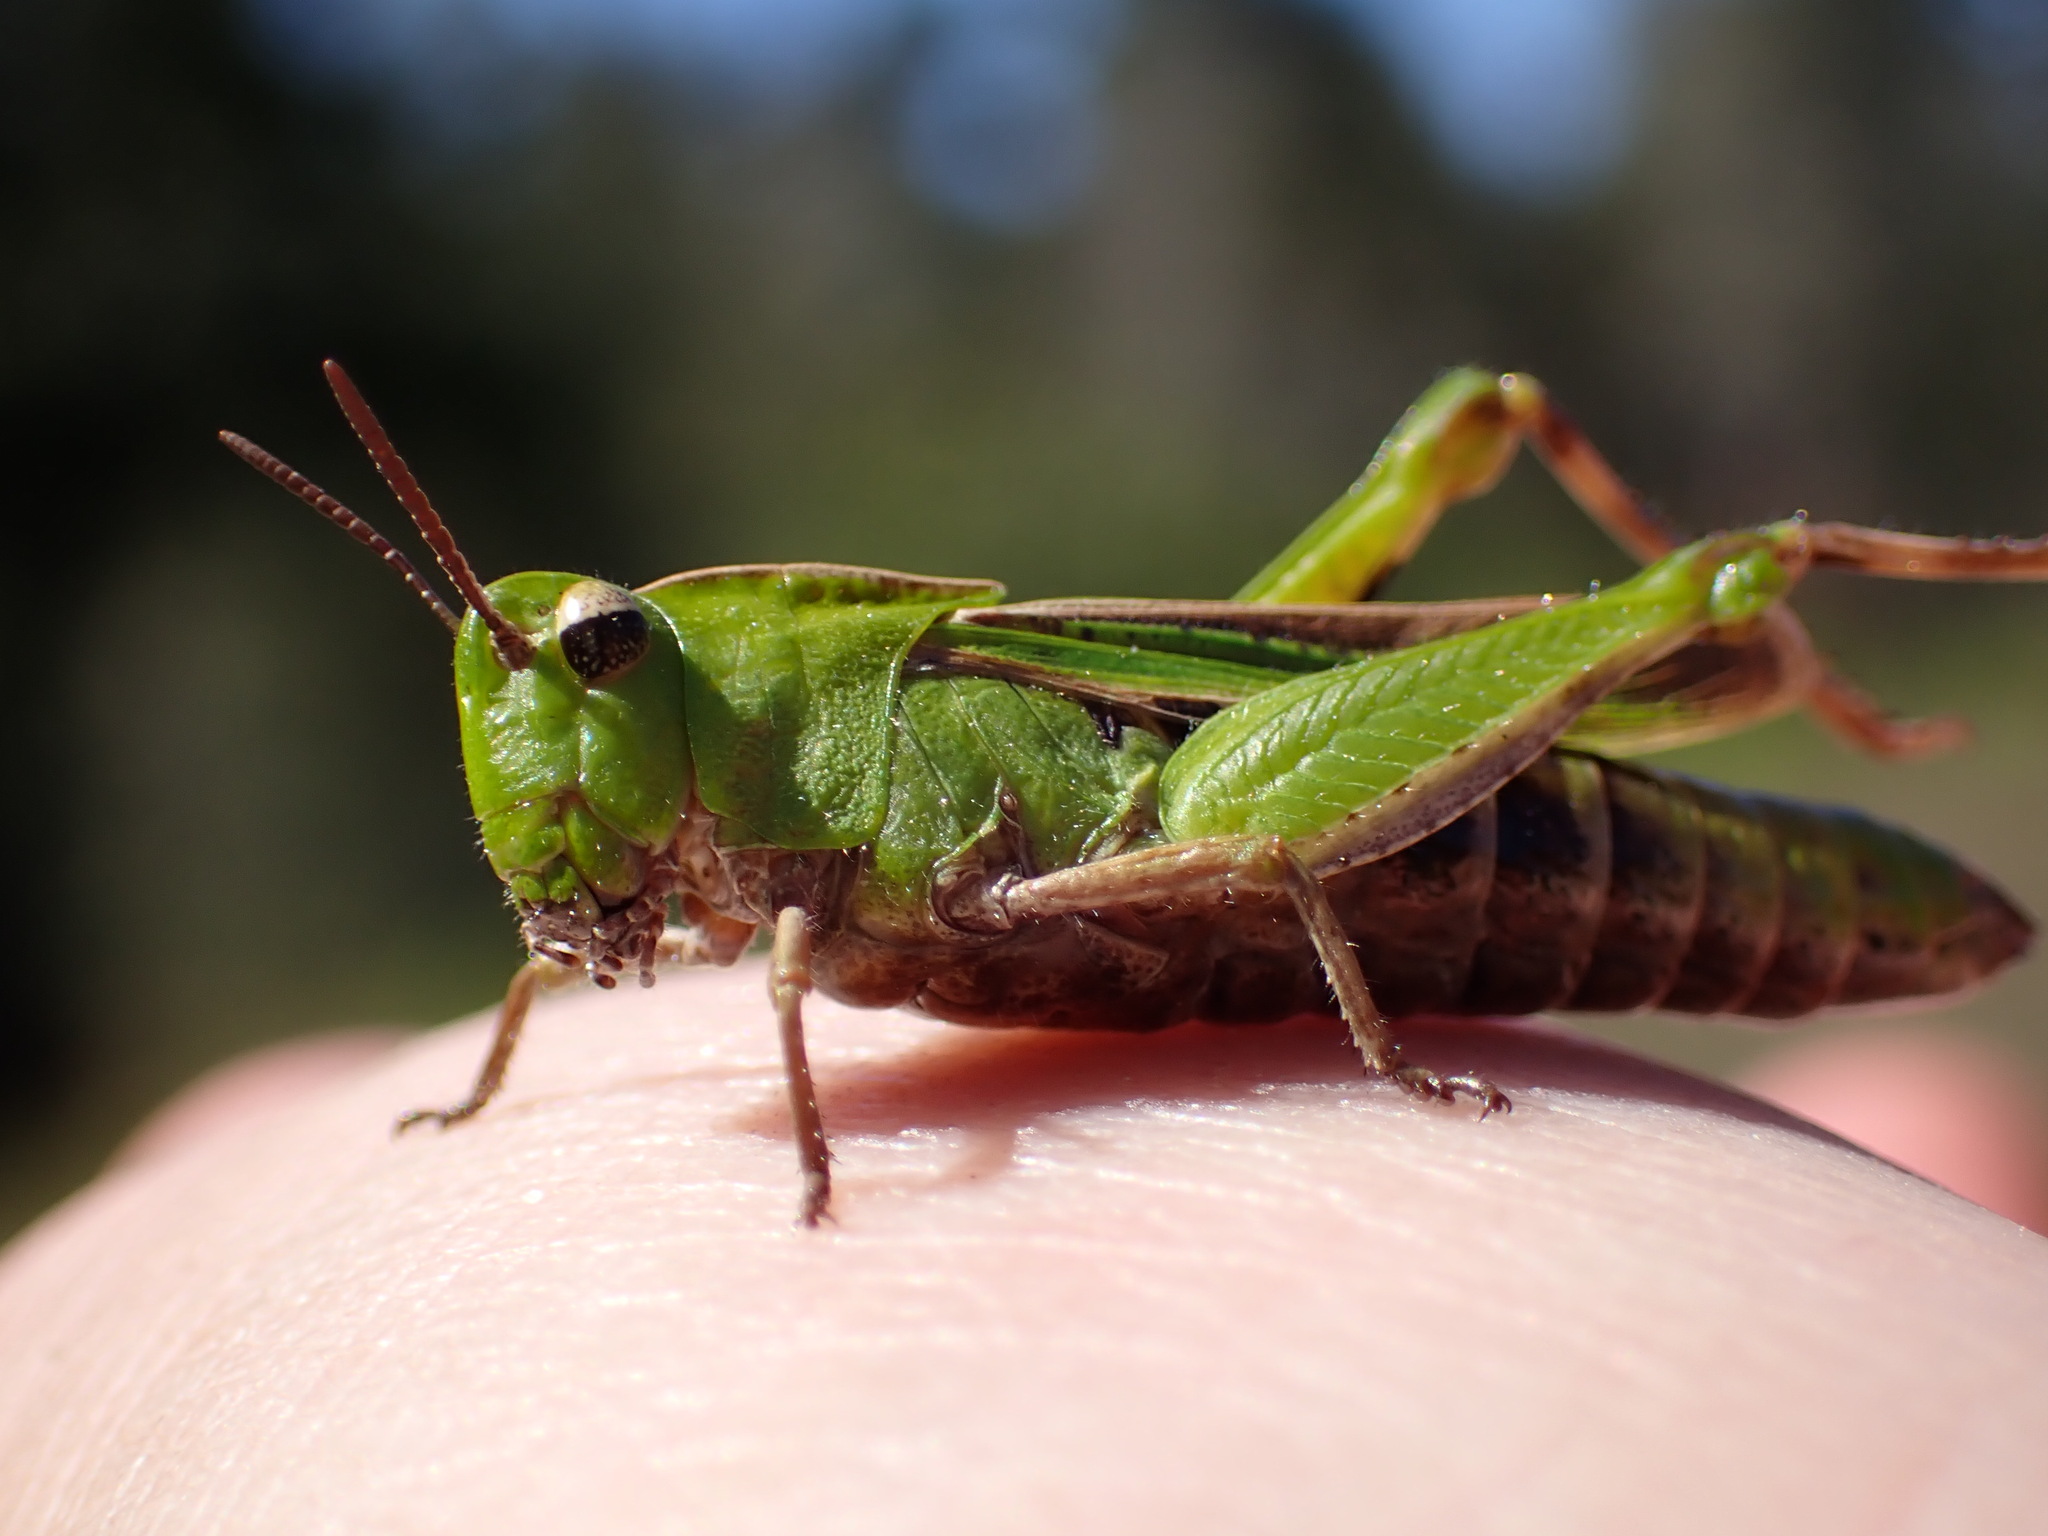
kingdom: Animalia
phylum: Arthropoda
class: Insecta
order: Orthoptera
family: Acrididae
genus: Chimarocephala
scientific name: Chimarocephala elongata
